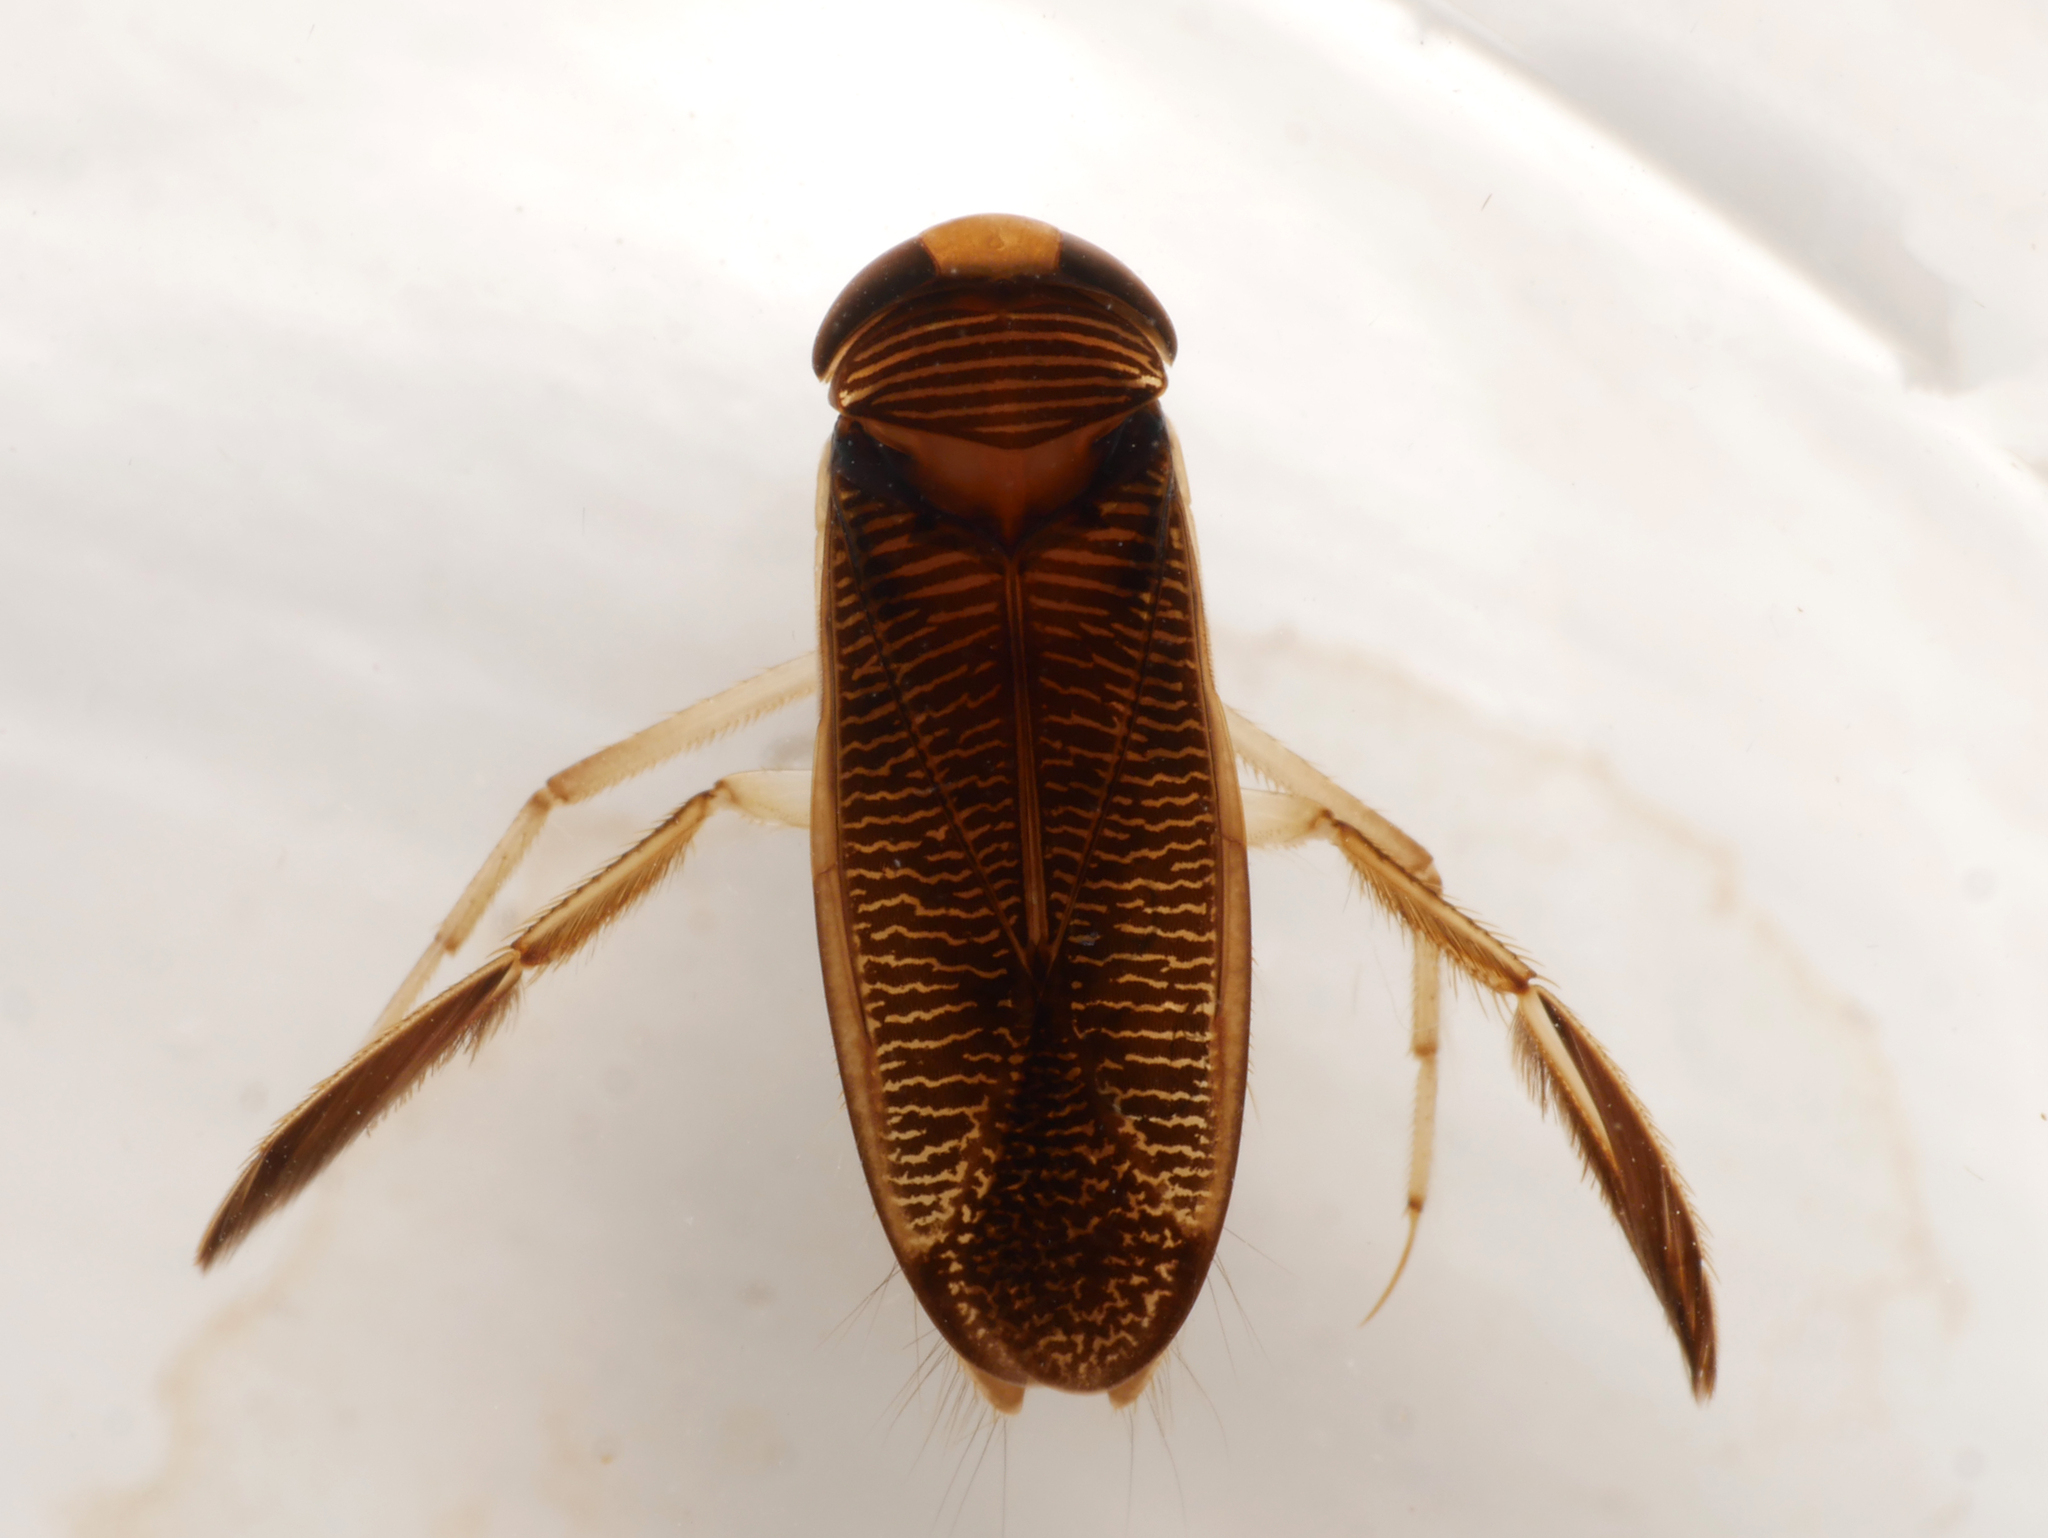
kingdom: Animalia
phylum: Arthropoda
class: Insecta
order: Hemiptera
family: Corixidae
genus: Hesperocorixa
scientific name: Hesperocorixa linnaei
